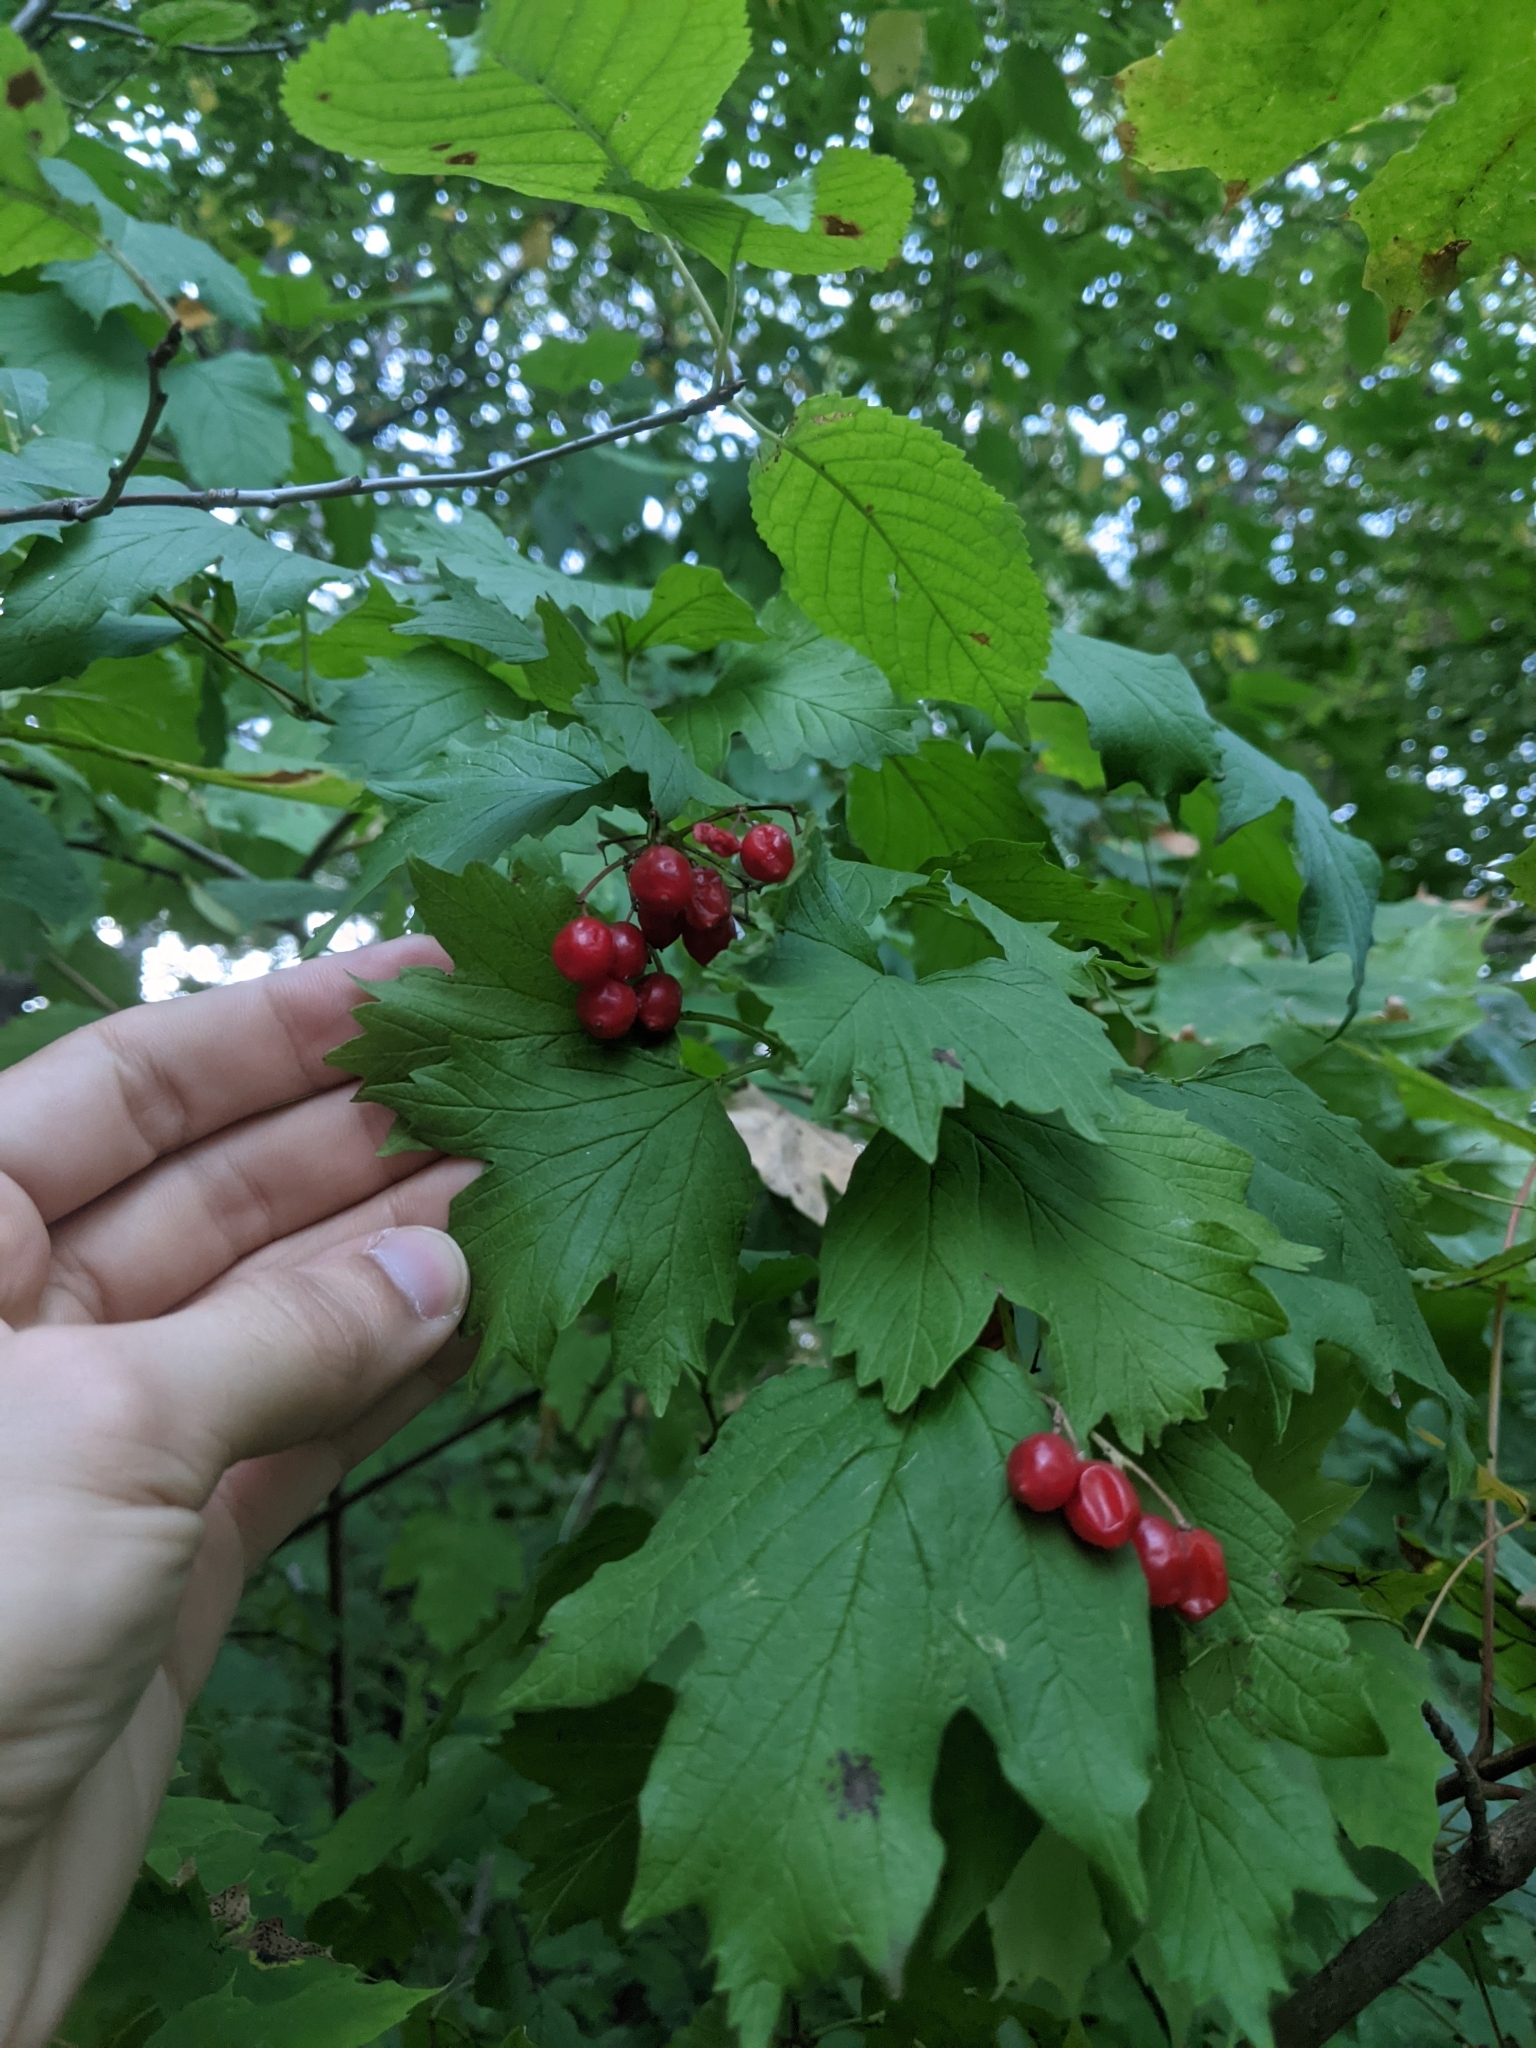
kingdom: Plantae
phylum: Tracheophyta
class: Magnoliopsida
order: Dipsacales
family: Viburnaceae
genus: Viburnum
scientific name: Viburnum opulus
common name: Guelder-rose
